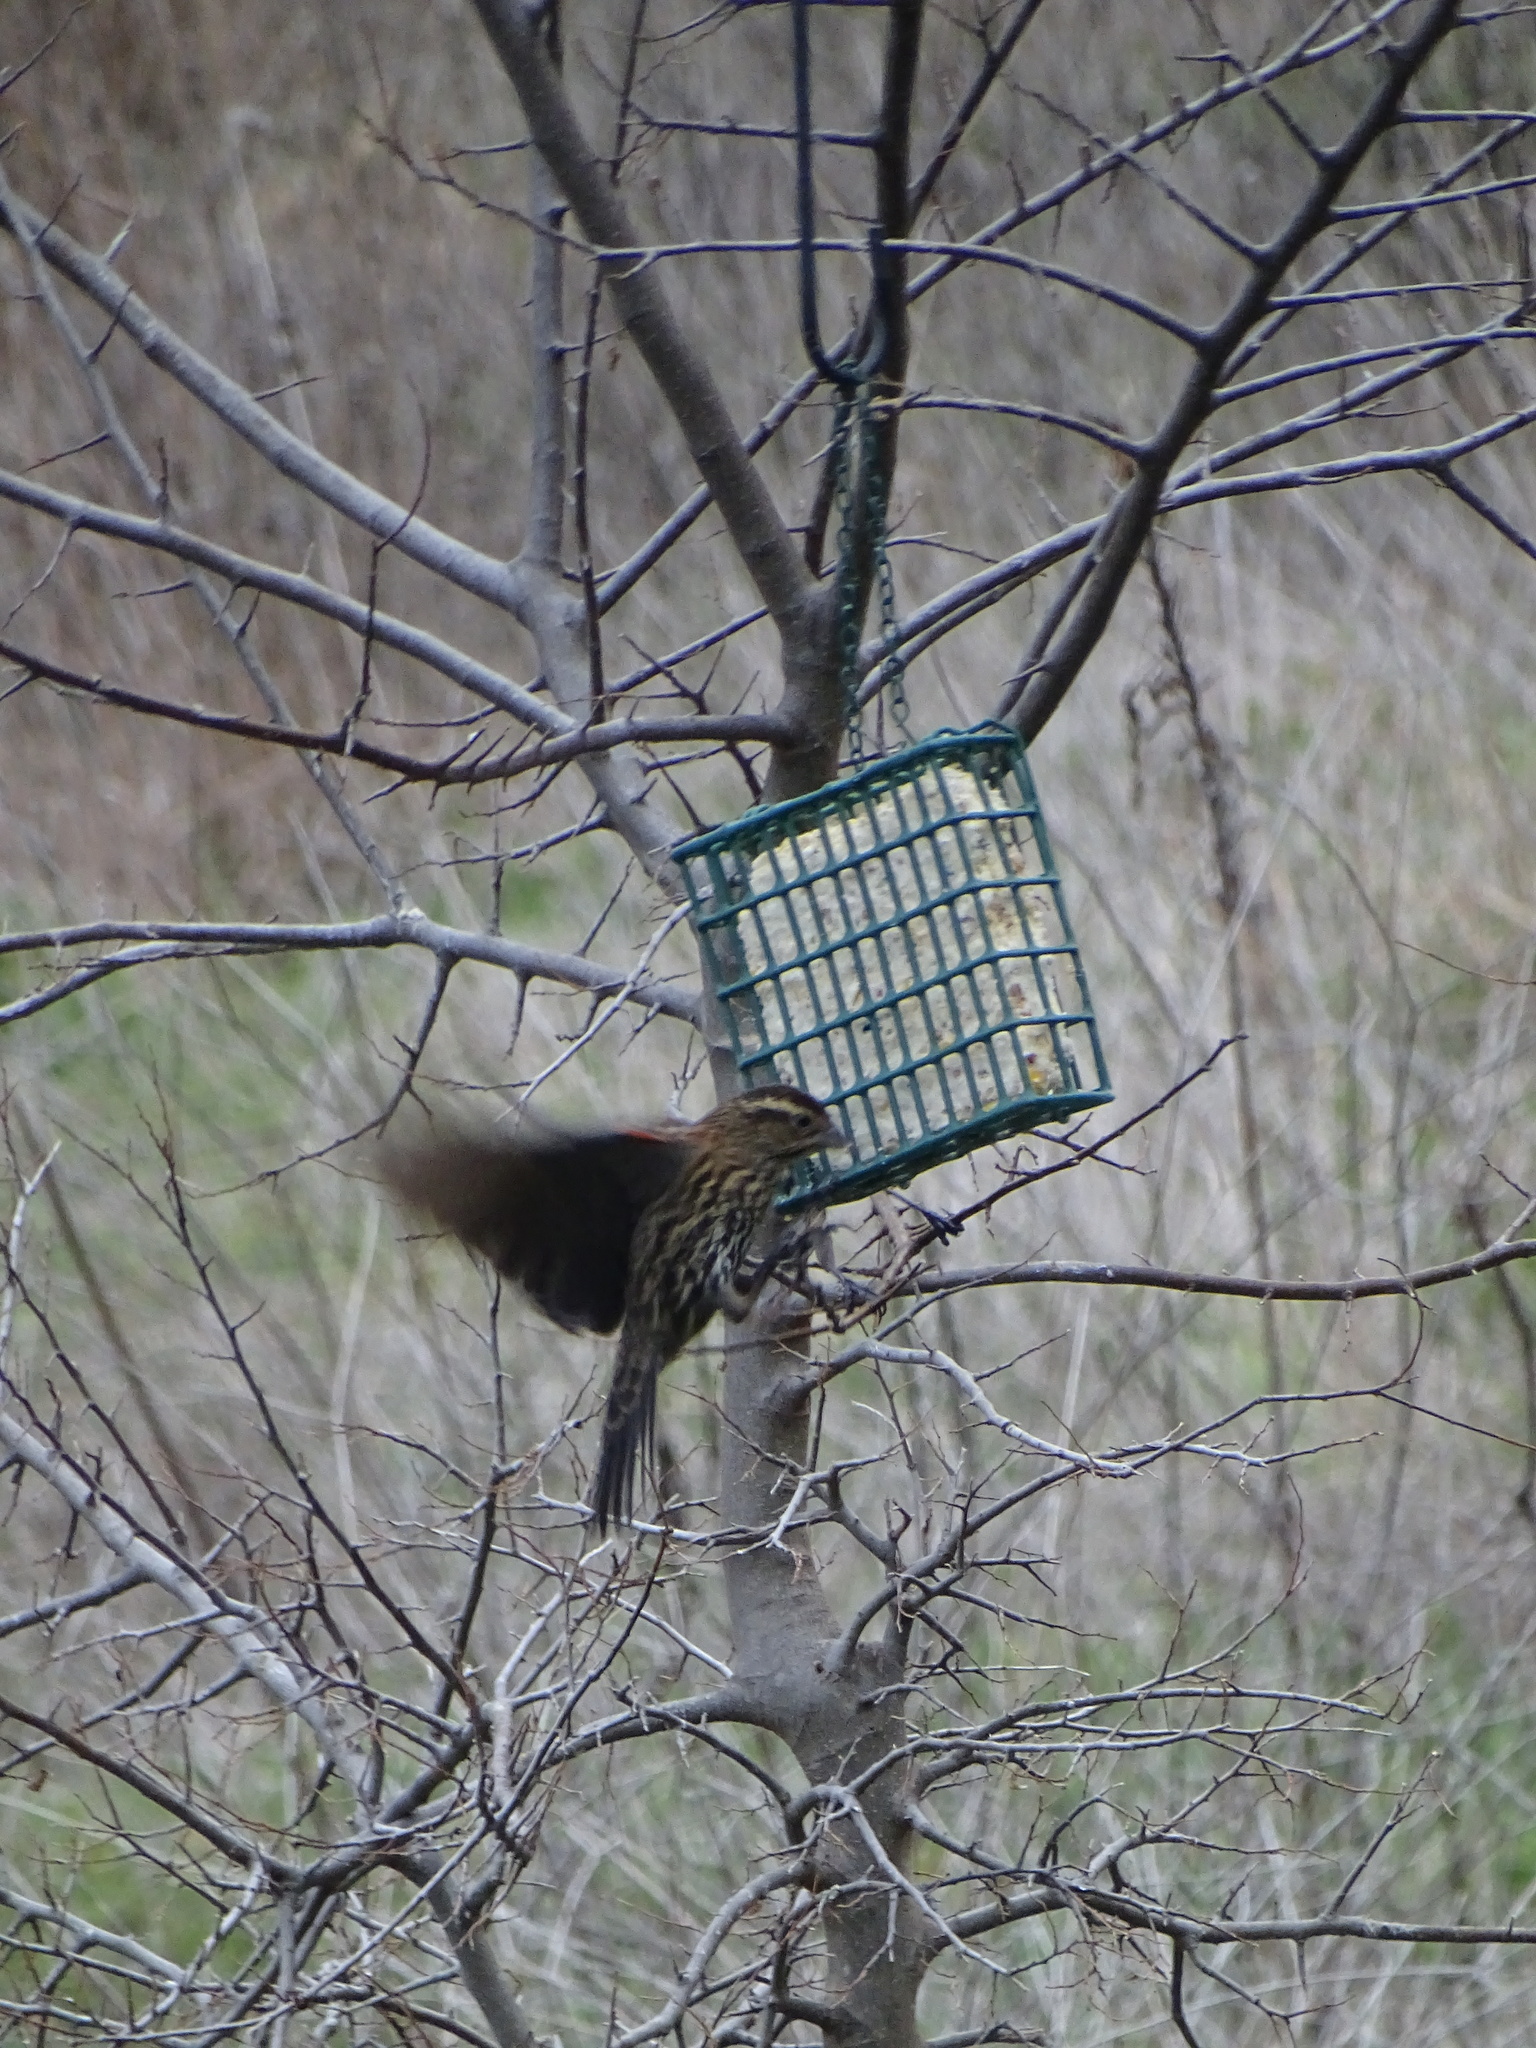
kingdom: Animalia
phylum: Chordata
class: Aves
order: Passeriformes
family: Icteridae
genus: Agelaius
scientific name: Agelaius phoeniceus
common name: Red-winged blackbird
